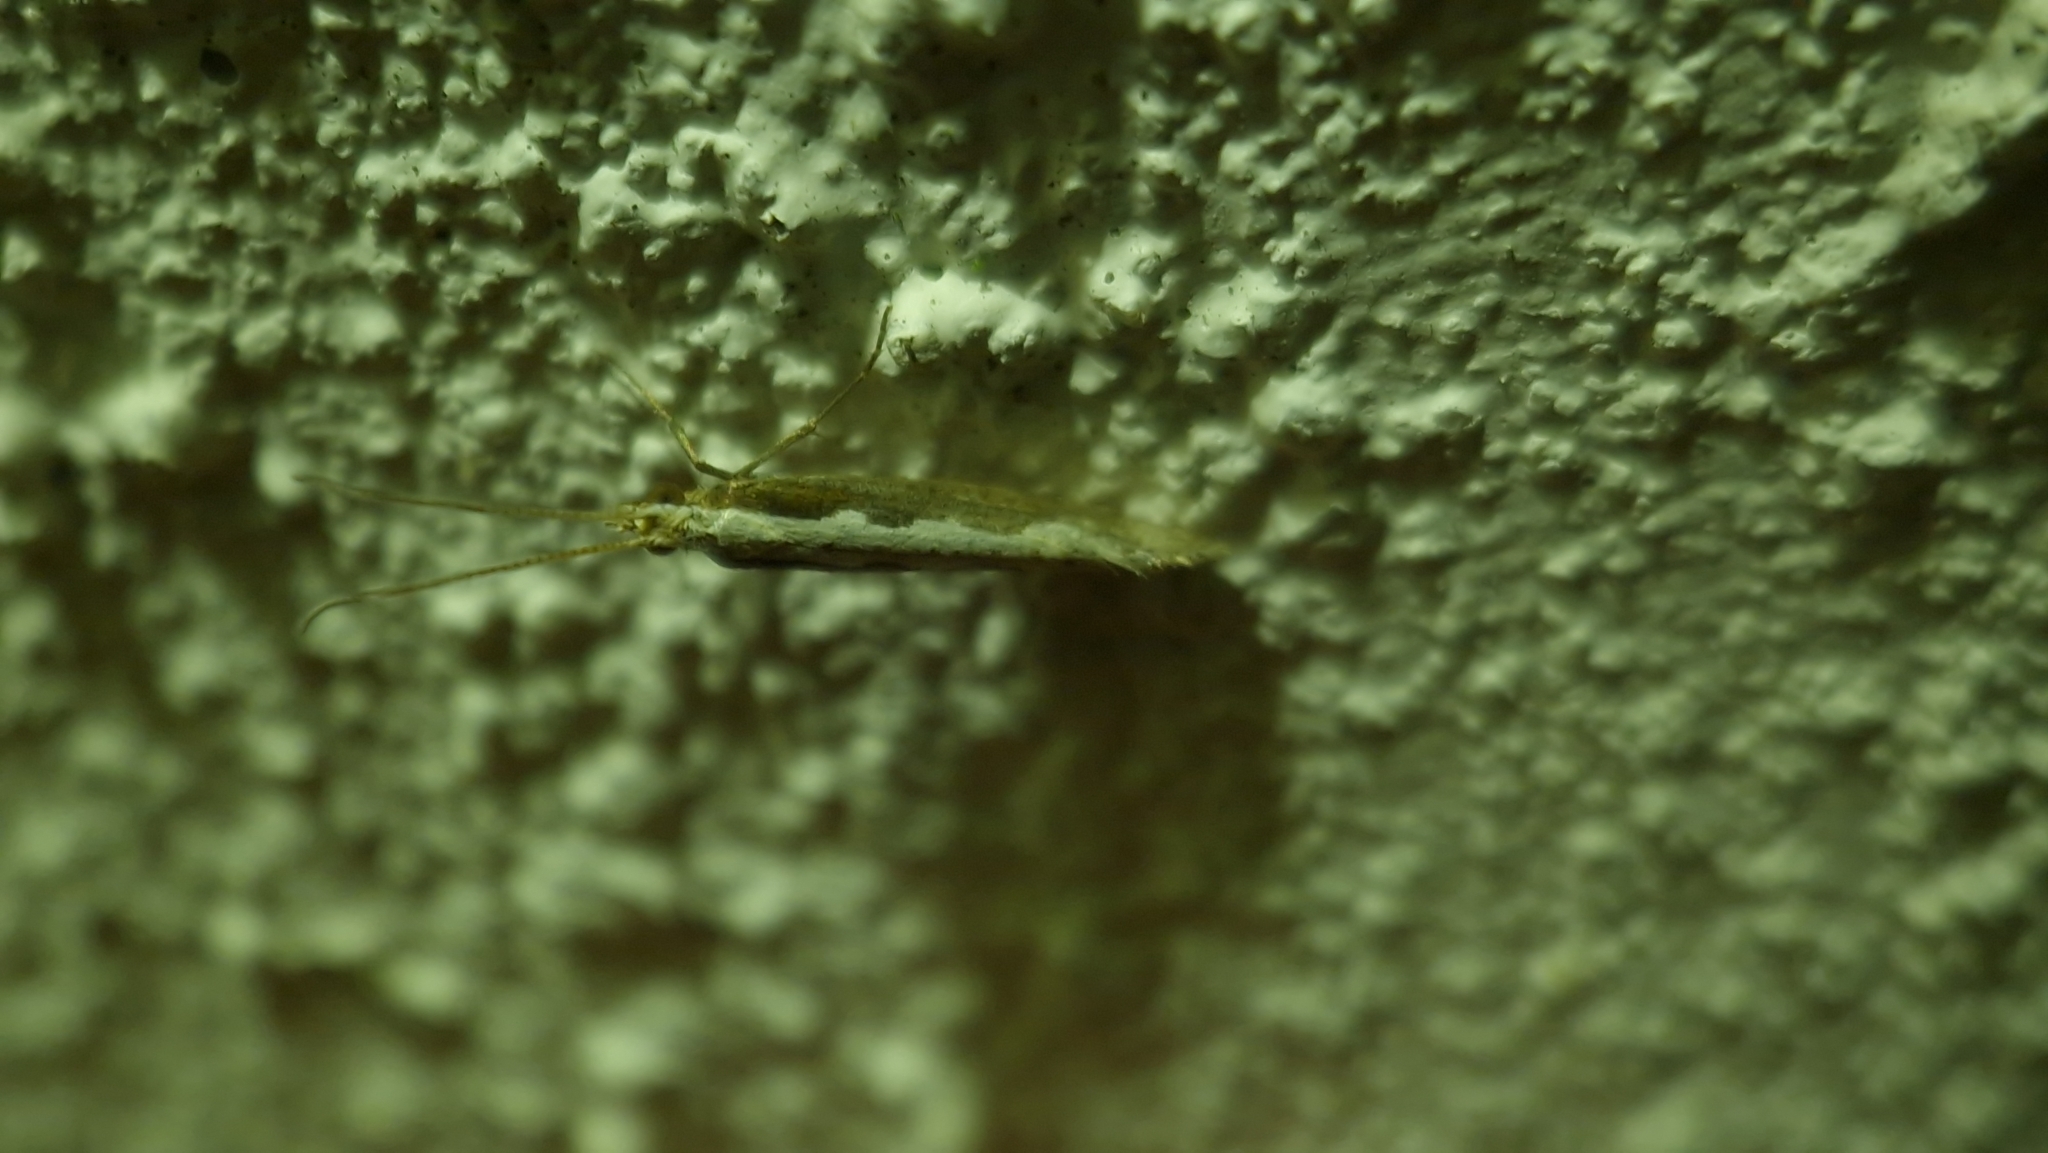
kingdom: Animalia
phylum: Arthropoda
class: Insecta
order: Lepidoptera
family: Plutellidae
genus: Plutella
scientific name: Plutella xylostella
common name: Diamond-back moth
